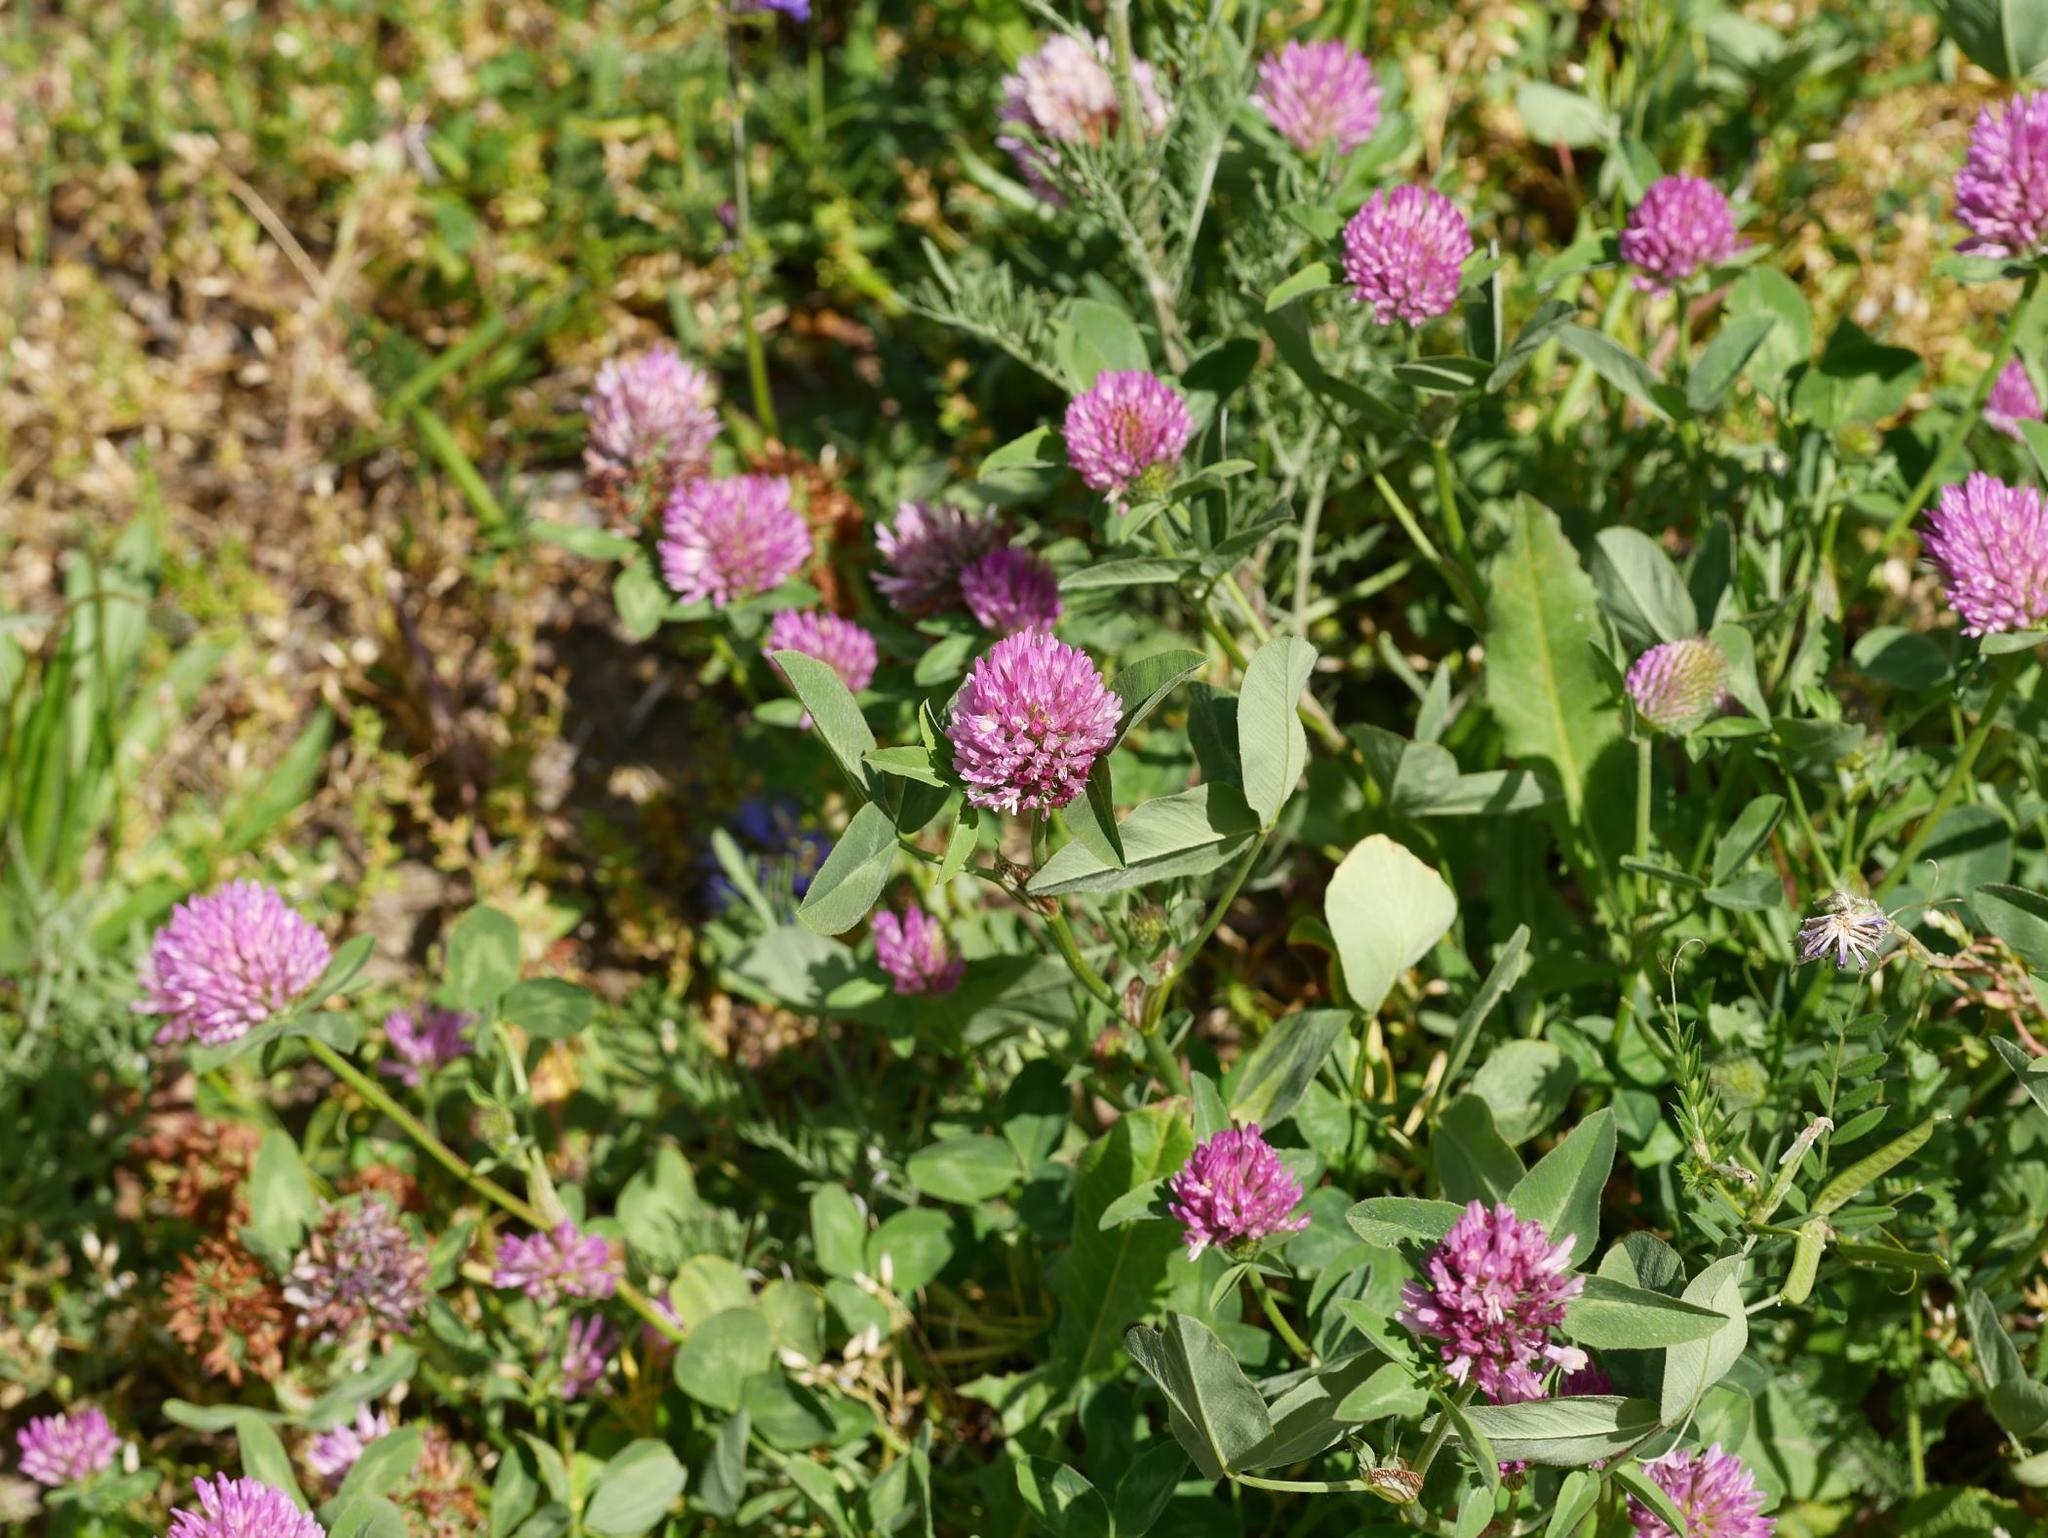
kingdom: Plantae
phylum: Tracheophyta
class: Magnoliopsida
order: Fabales
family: Fabaceae
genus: Trifolium
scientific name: Trifolium pratense
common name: Red clover
